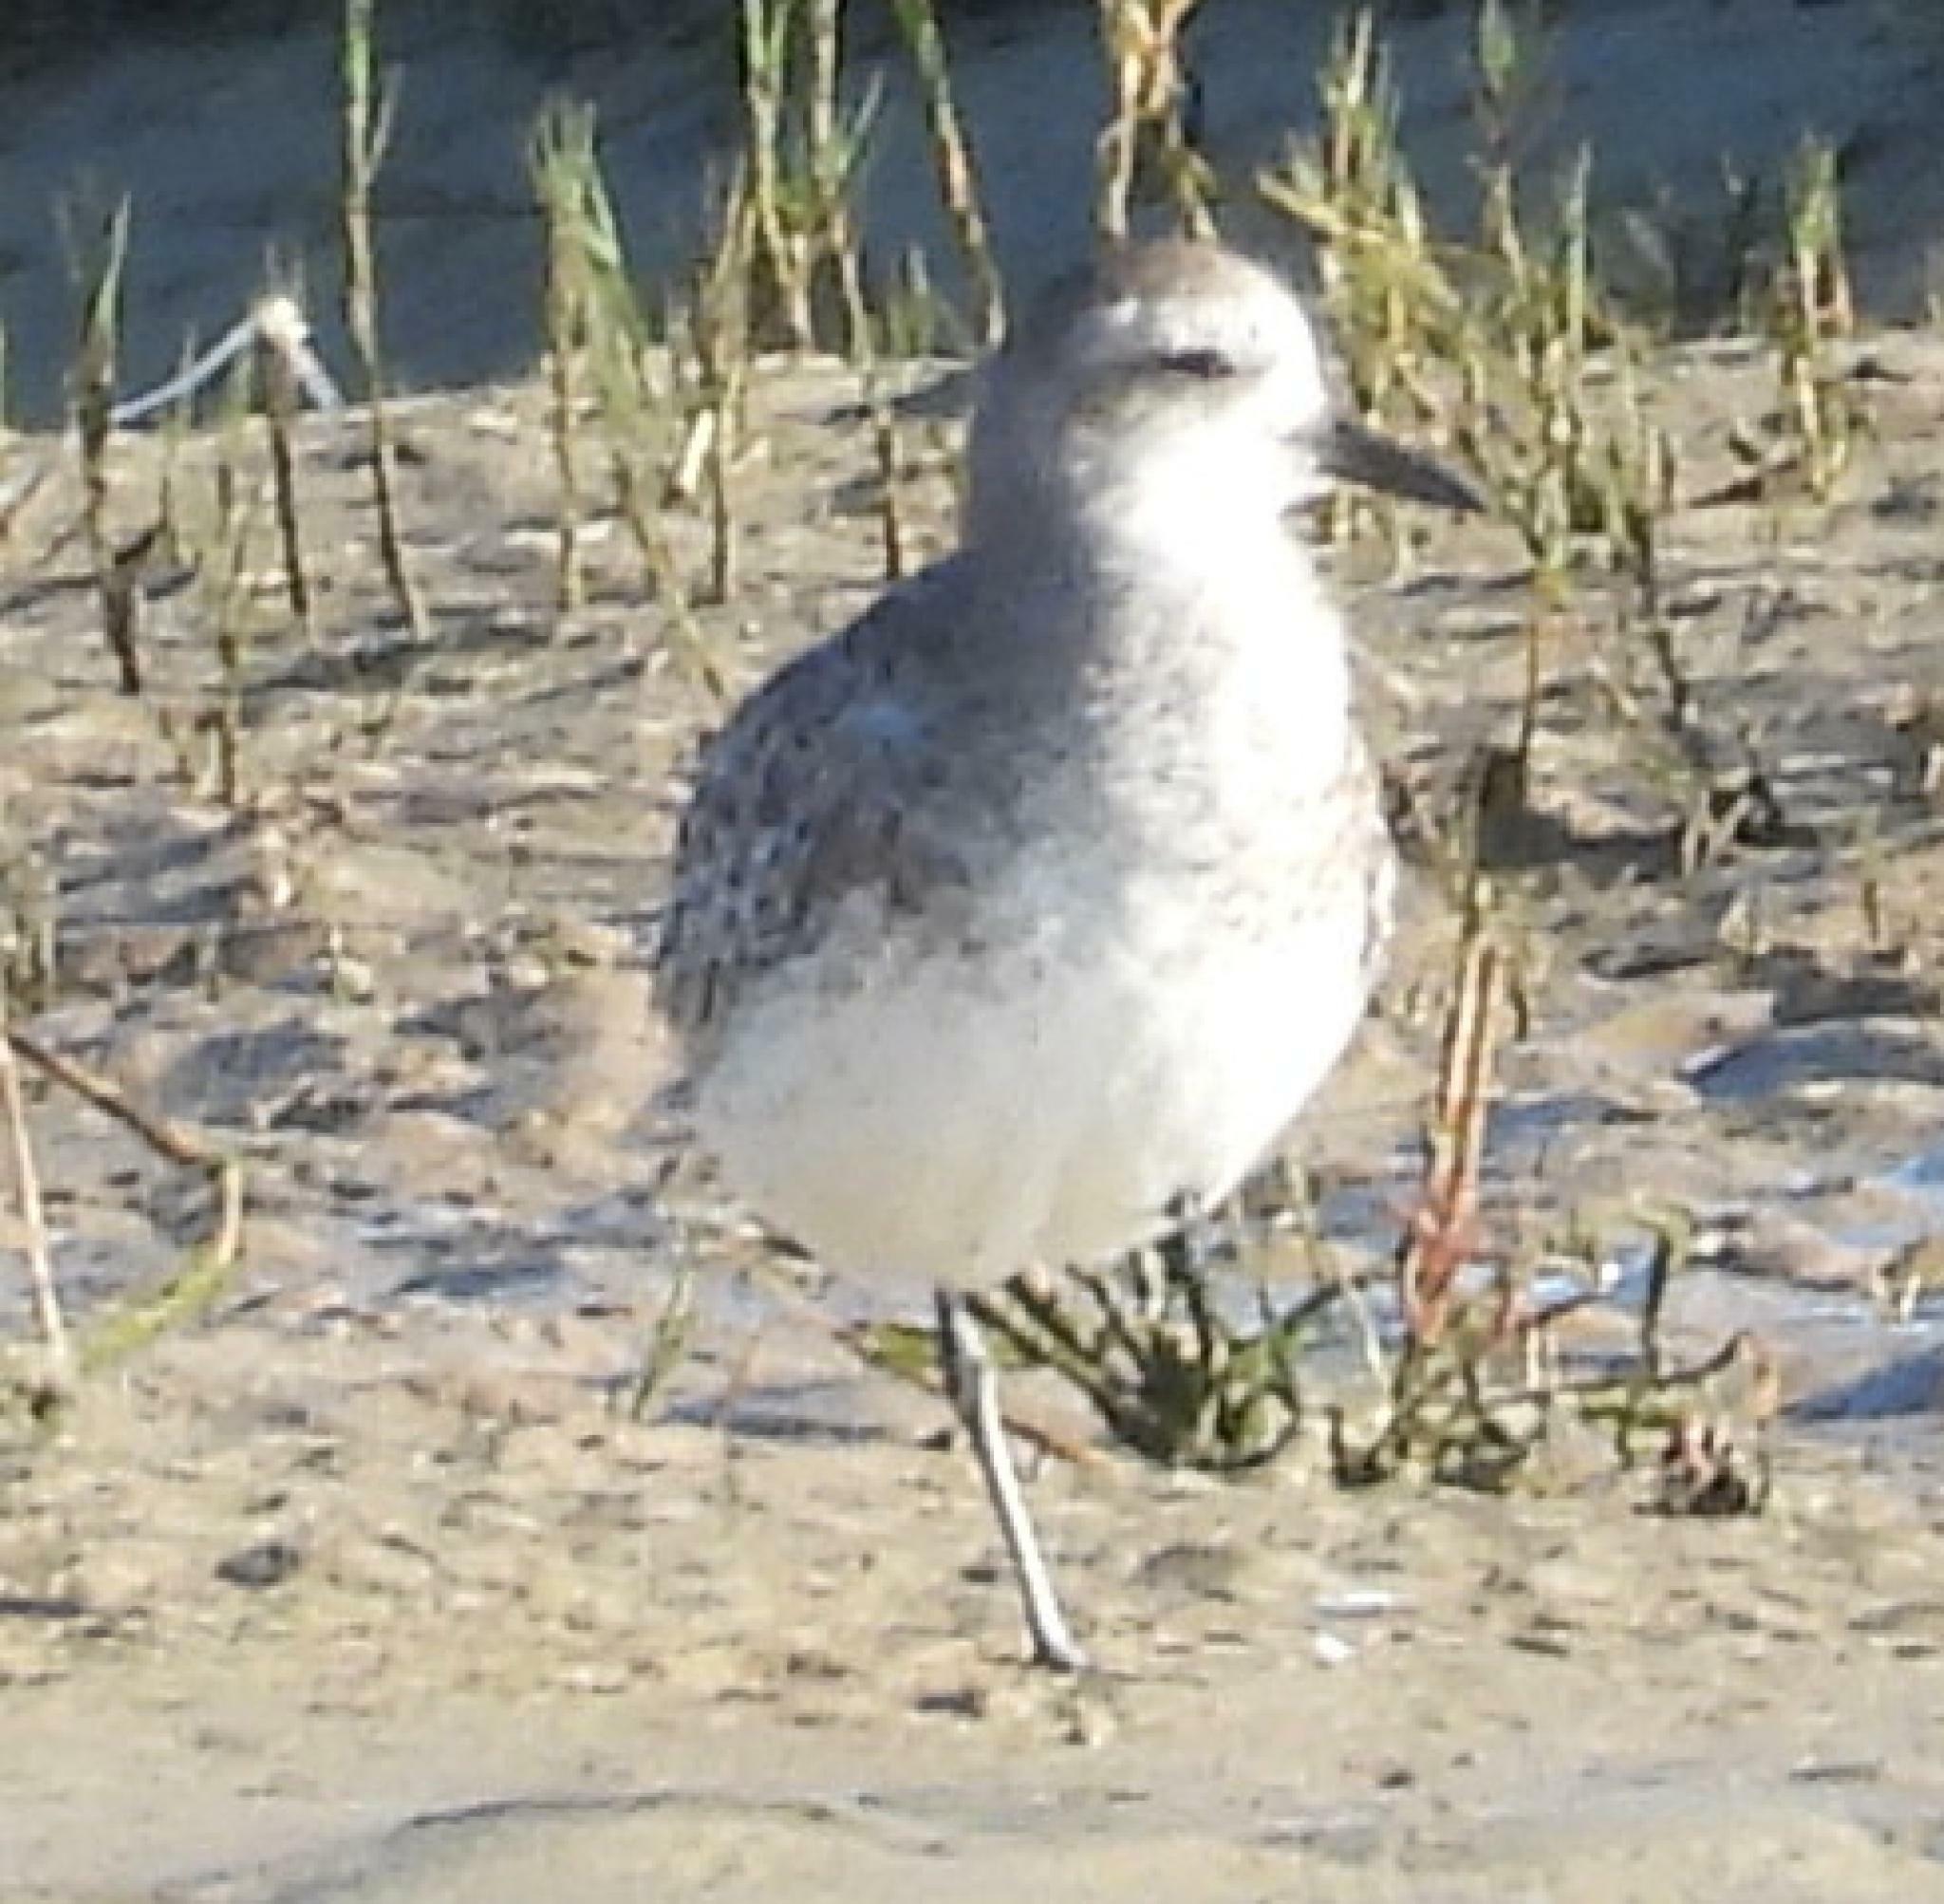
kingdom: Animalia
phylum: Chordata
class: Aves
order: Charadriiformes
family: Charadriidae
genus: Pluvialis
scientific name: Pluvialis squatarola
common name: Grey plover
